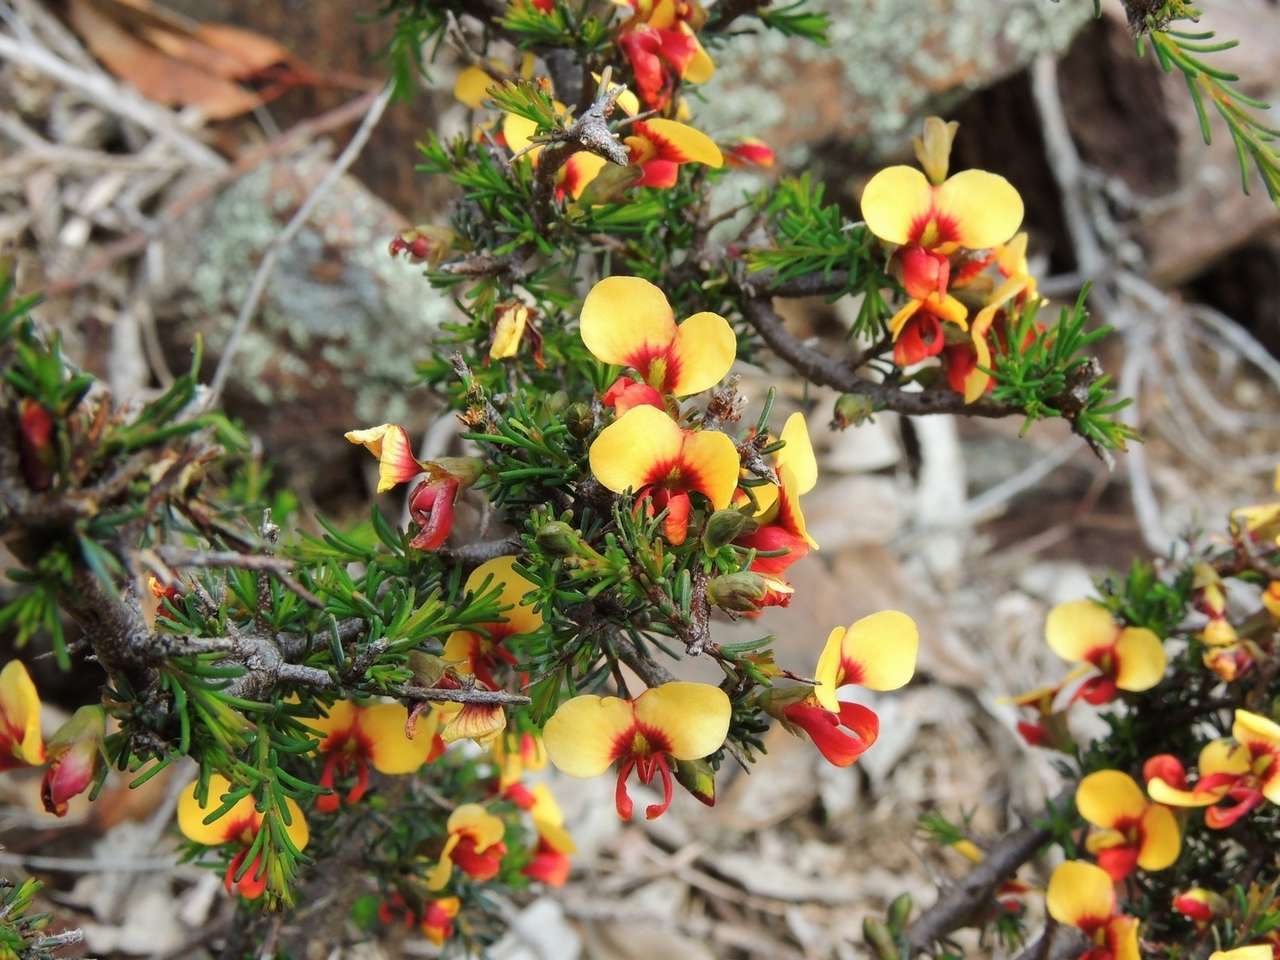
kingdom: Plantae
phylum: Tracheophyta
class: Magnoliopsida
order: Fabales
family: Fabaceae
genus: Dillwynia
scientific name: Dillwynia ramosissima
